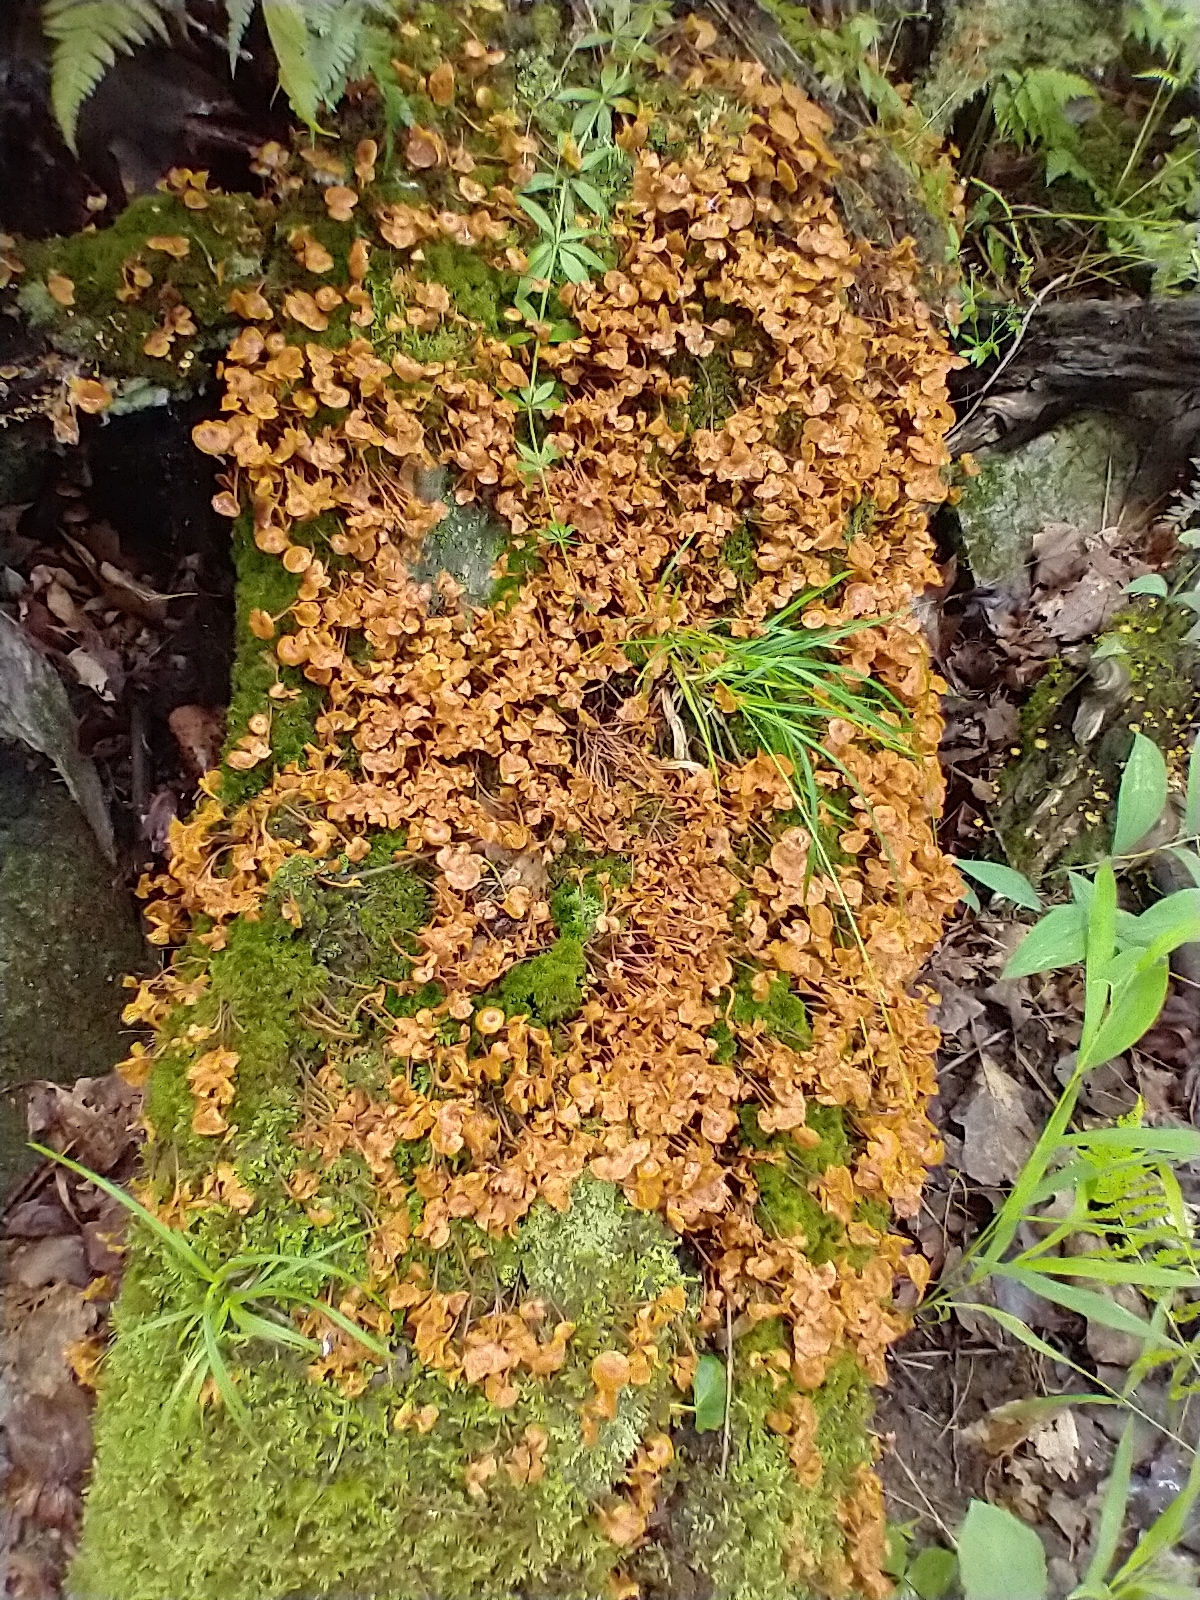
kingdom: Fungi
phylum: Basidiomycota
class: Agaricomycetes
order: Agaricales
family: Mycenaceae
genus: Xeromphalina
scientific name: Xeromphalina campanella
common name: Pinewood gingertail
